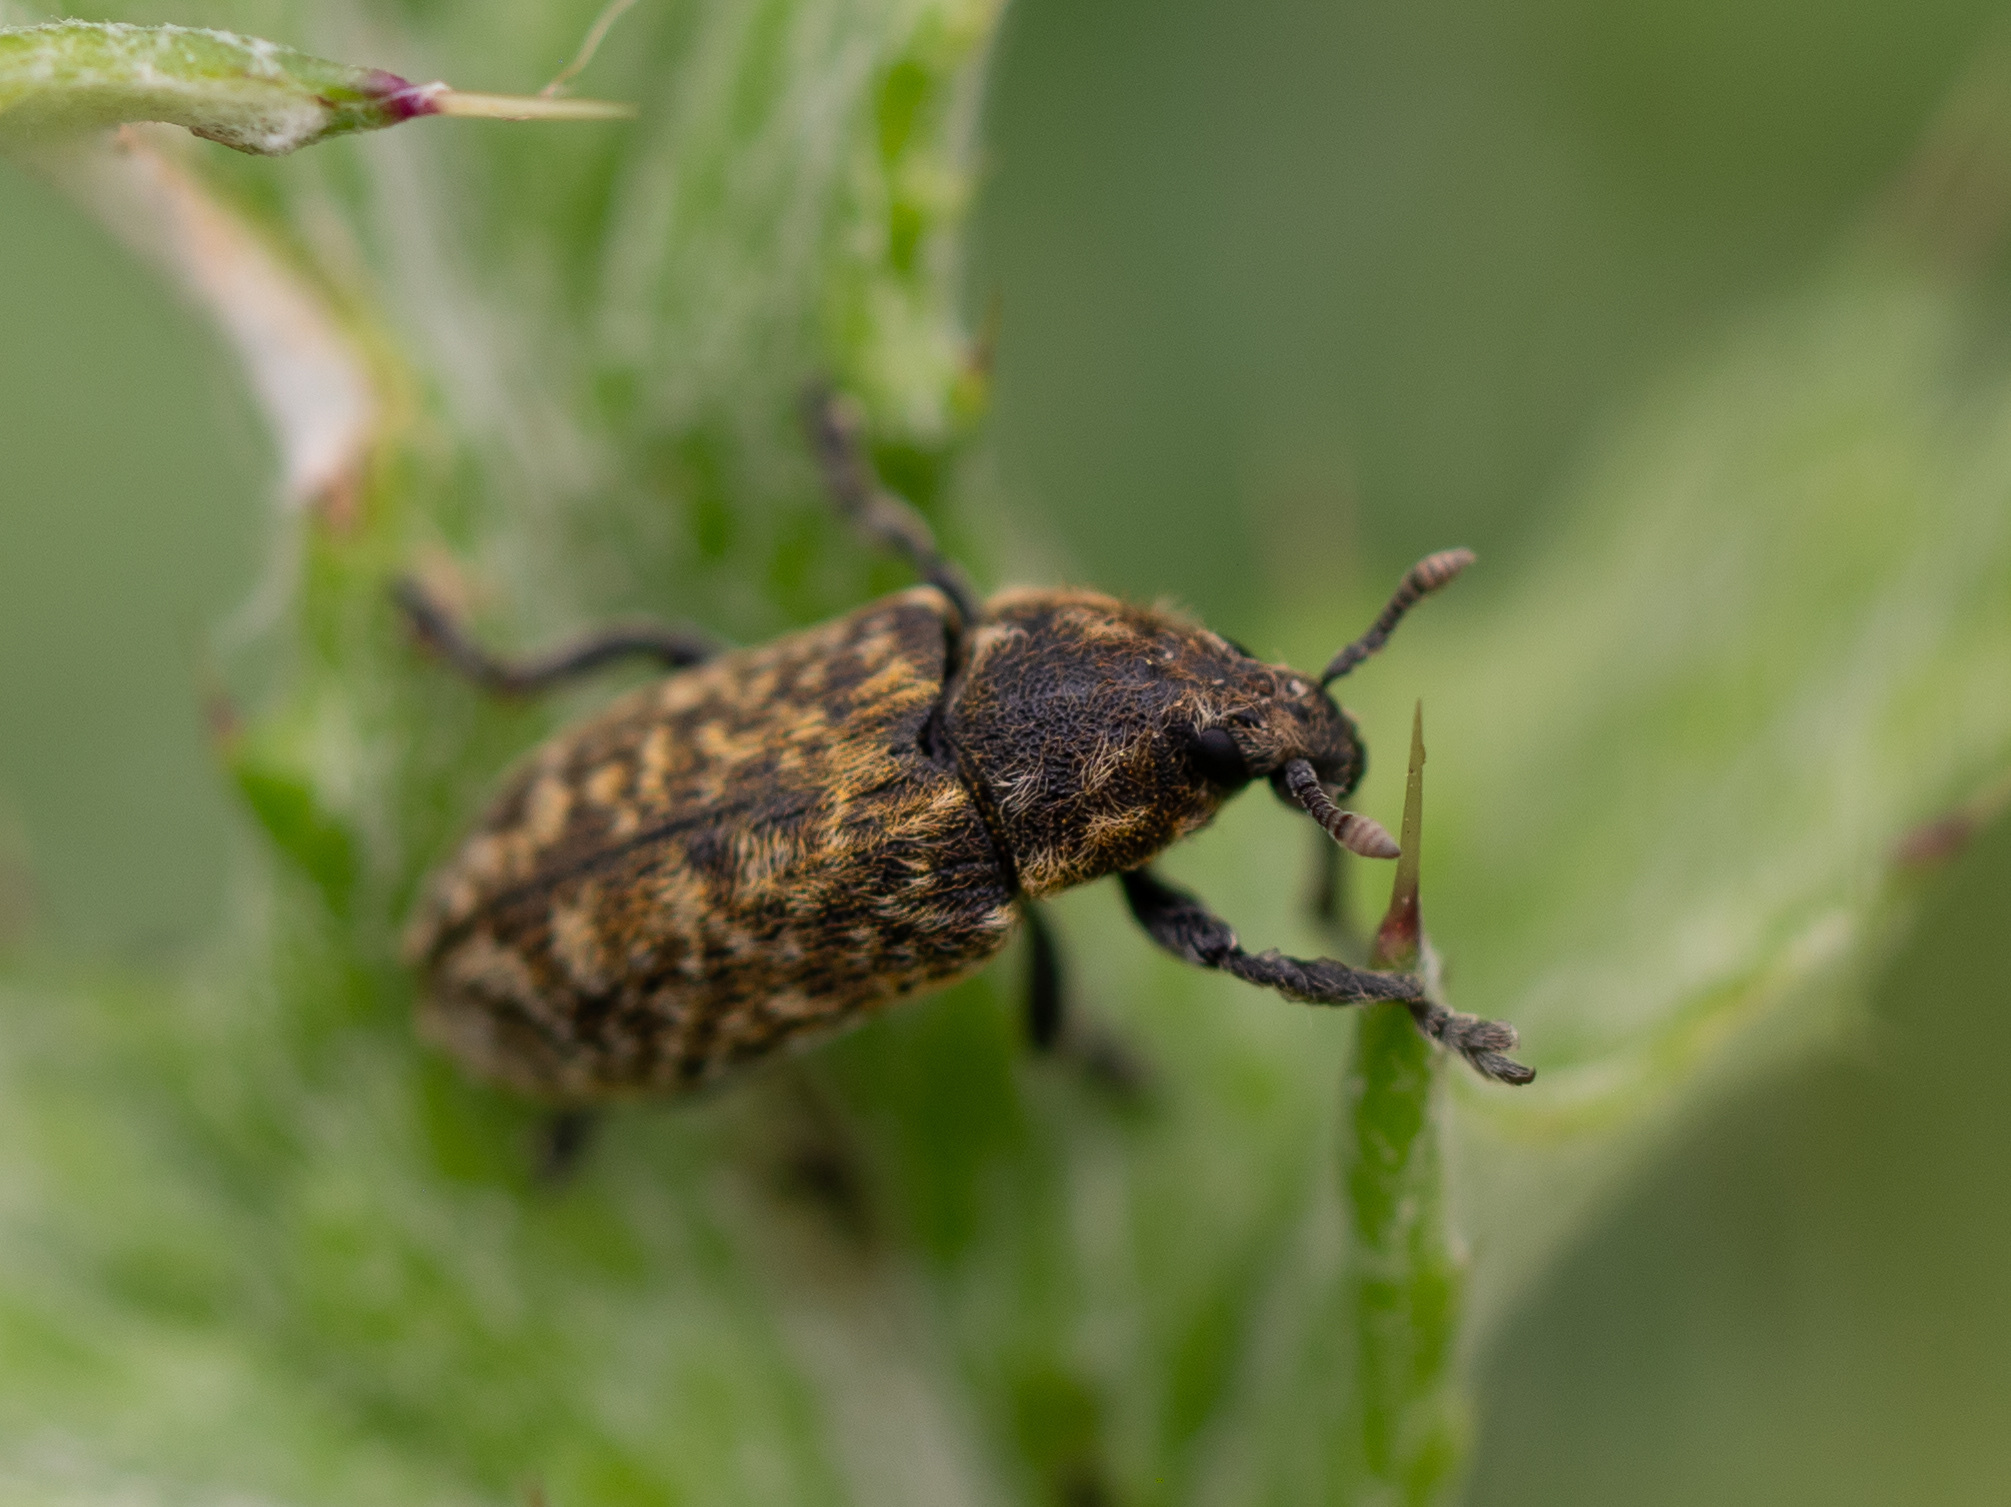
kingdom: Animalia
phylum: Arthropoda
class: Insecta
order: Coleoptera
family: Curculionidae
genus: Rhinocyllus
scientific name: Rhinocyllus conicus
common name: Weevil
